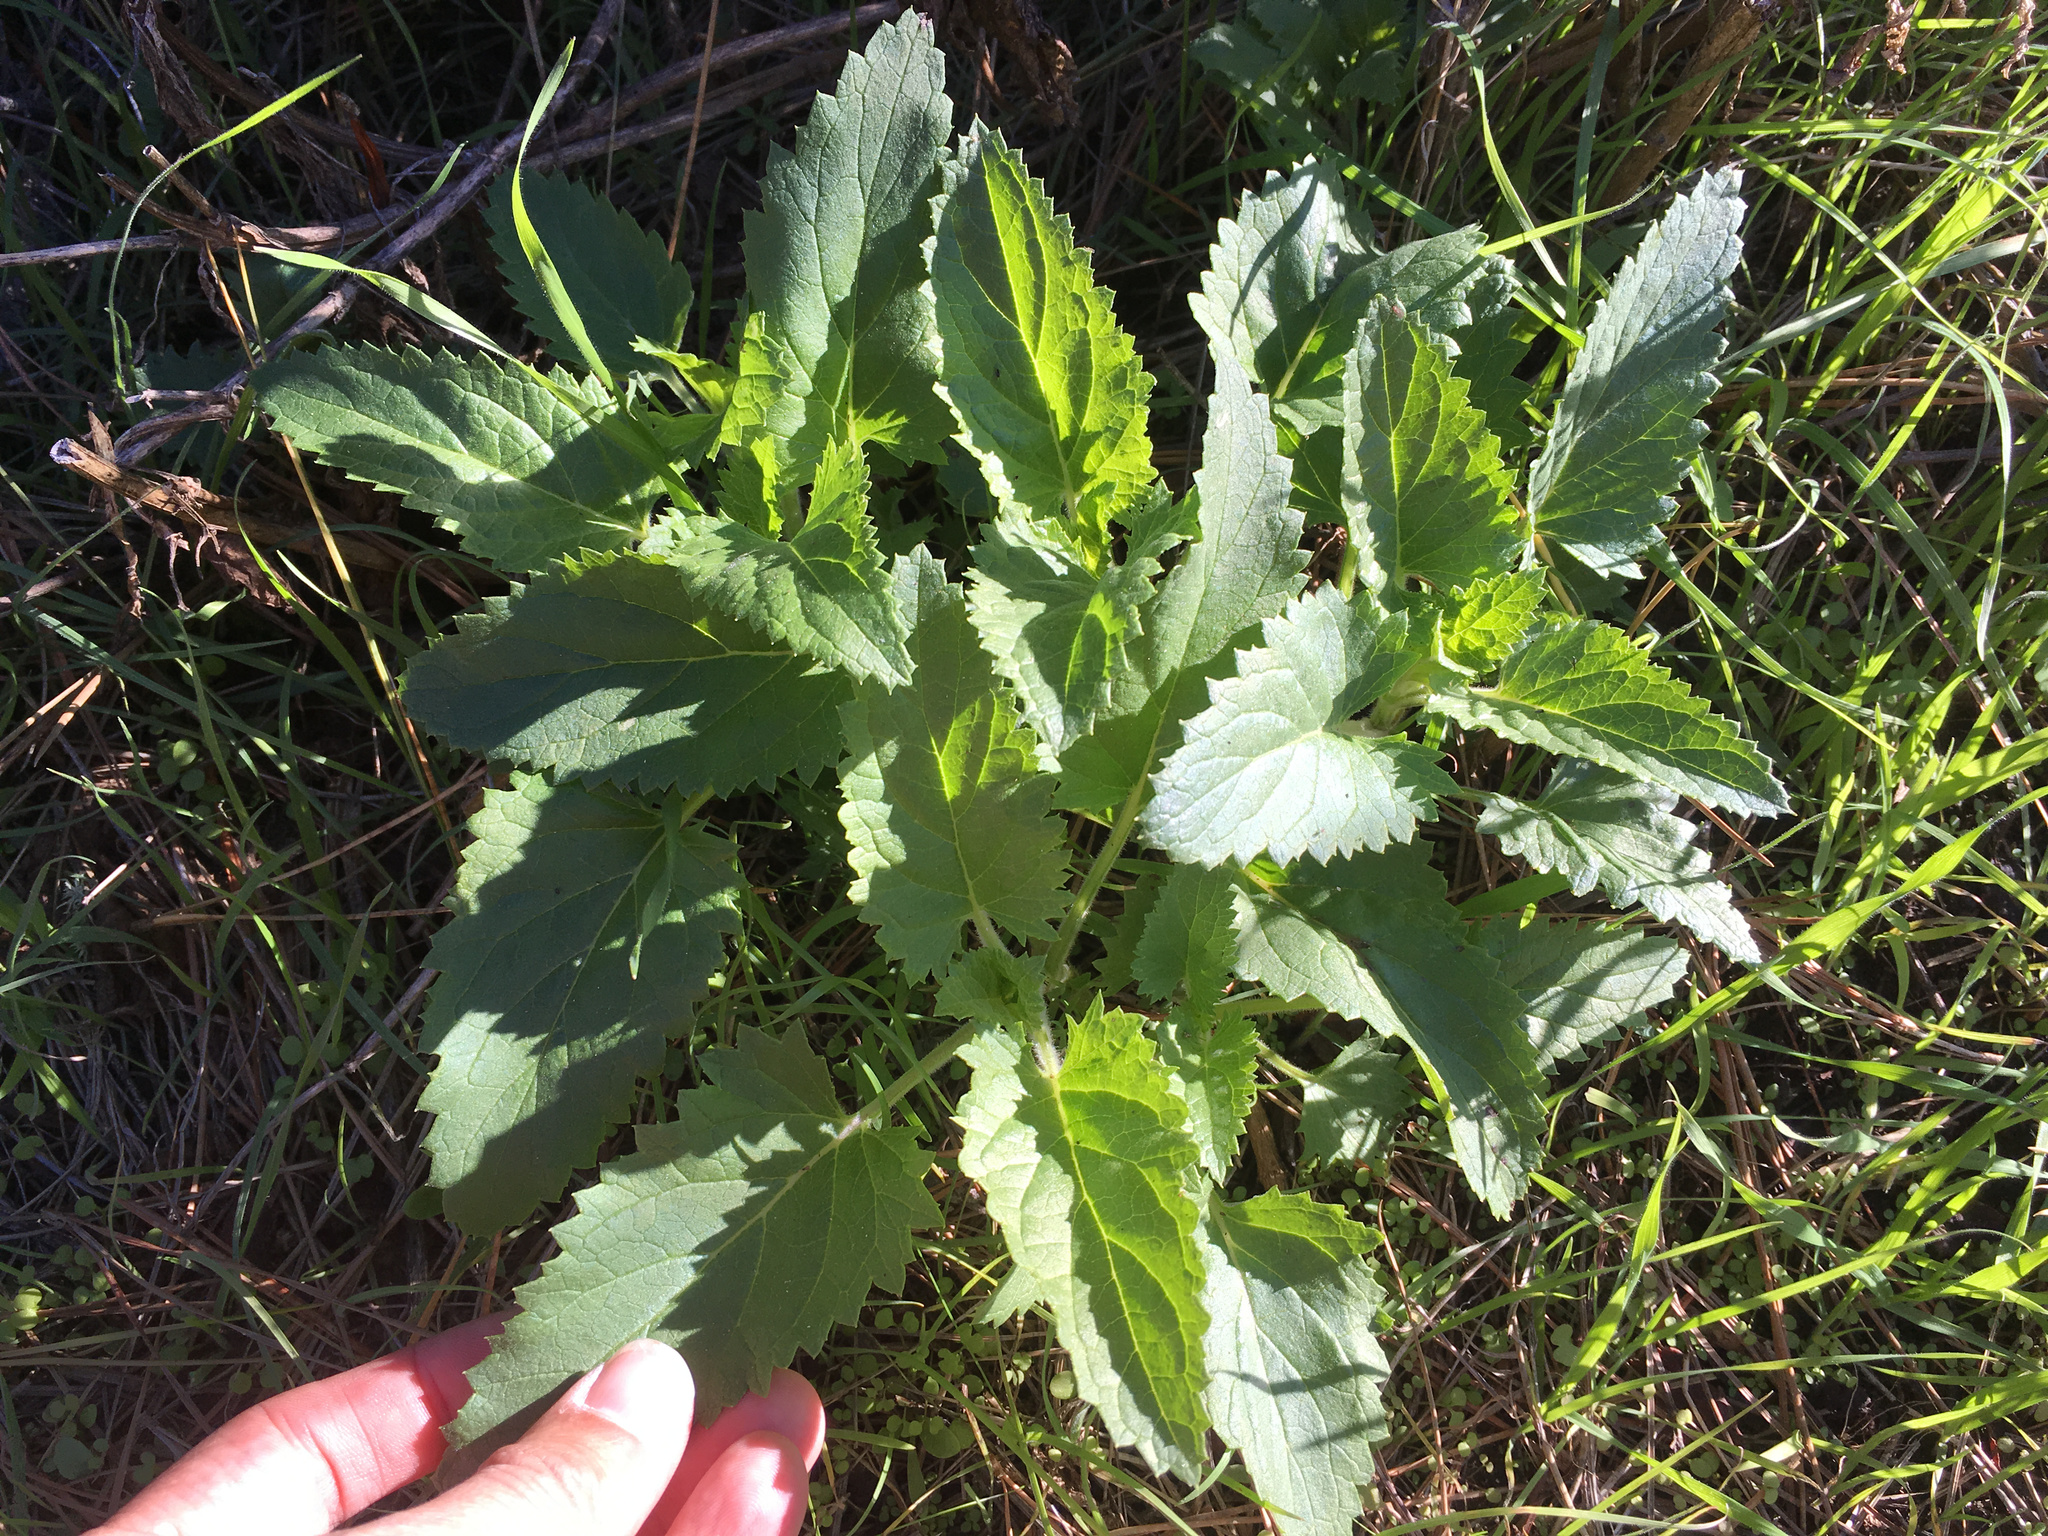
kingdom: Plantae
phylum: Tracheophyta
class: Magnoliopsida
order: Lamiales
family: Scrophulariaceae
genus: Scrophularia
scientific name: Scrophularia californica
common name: California figwort
